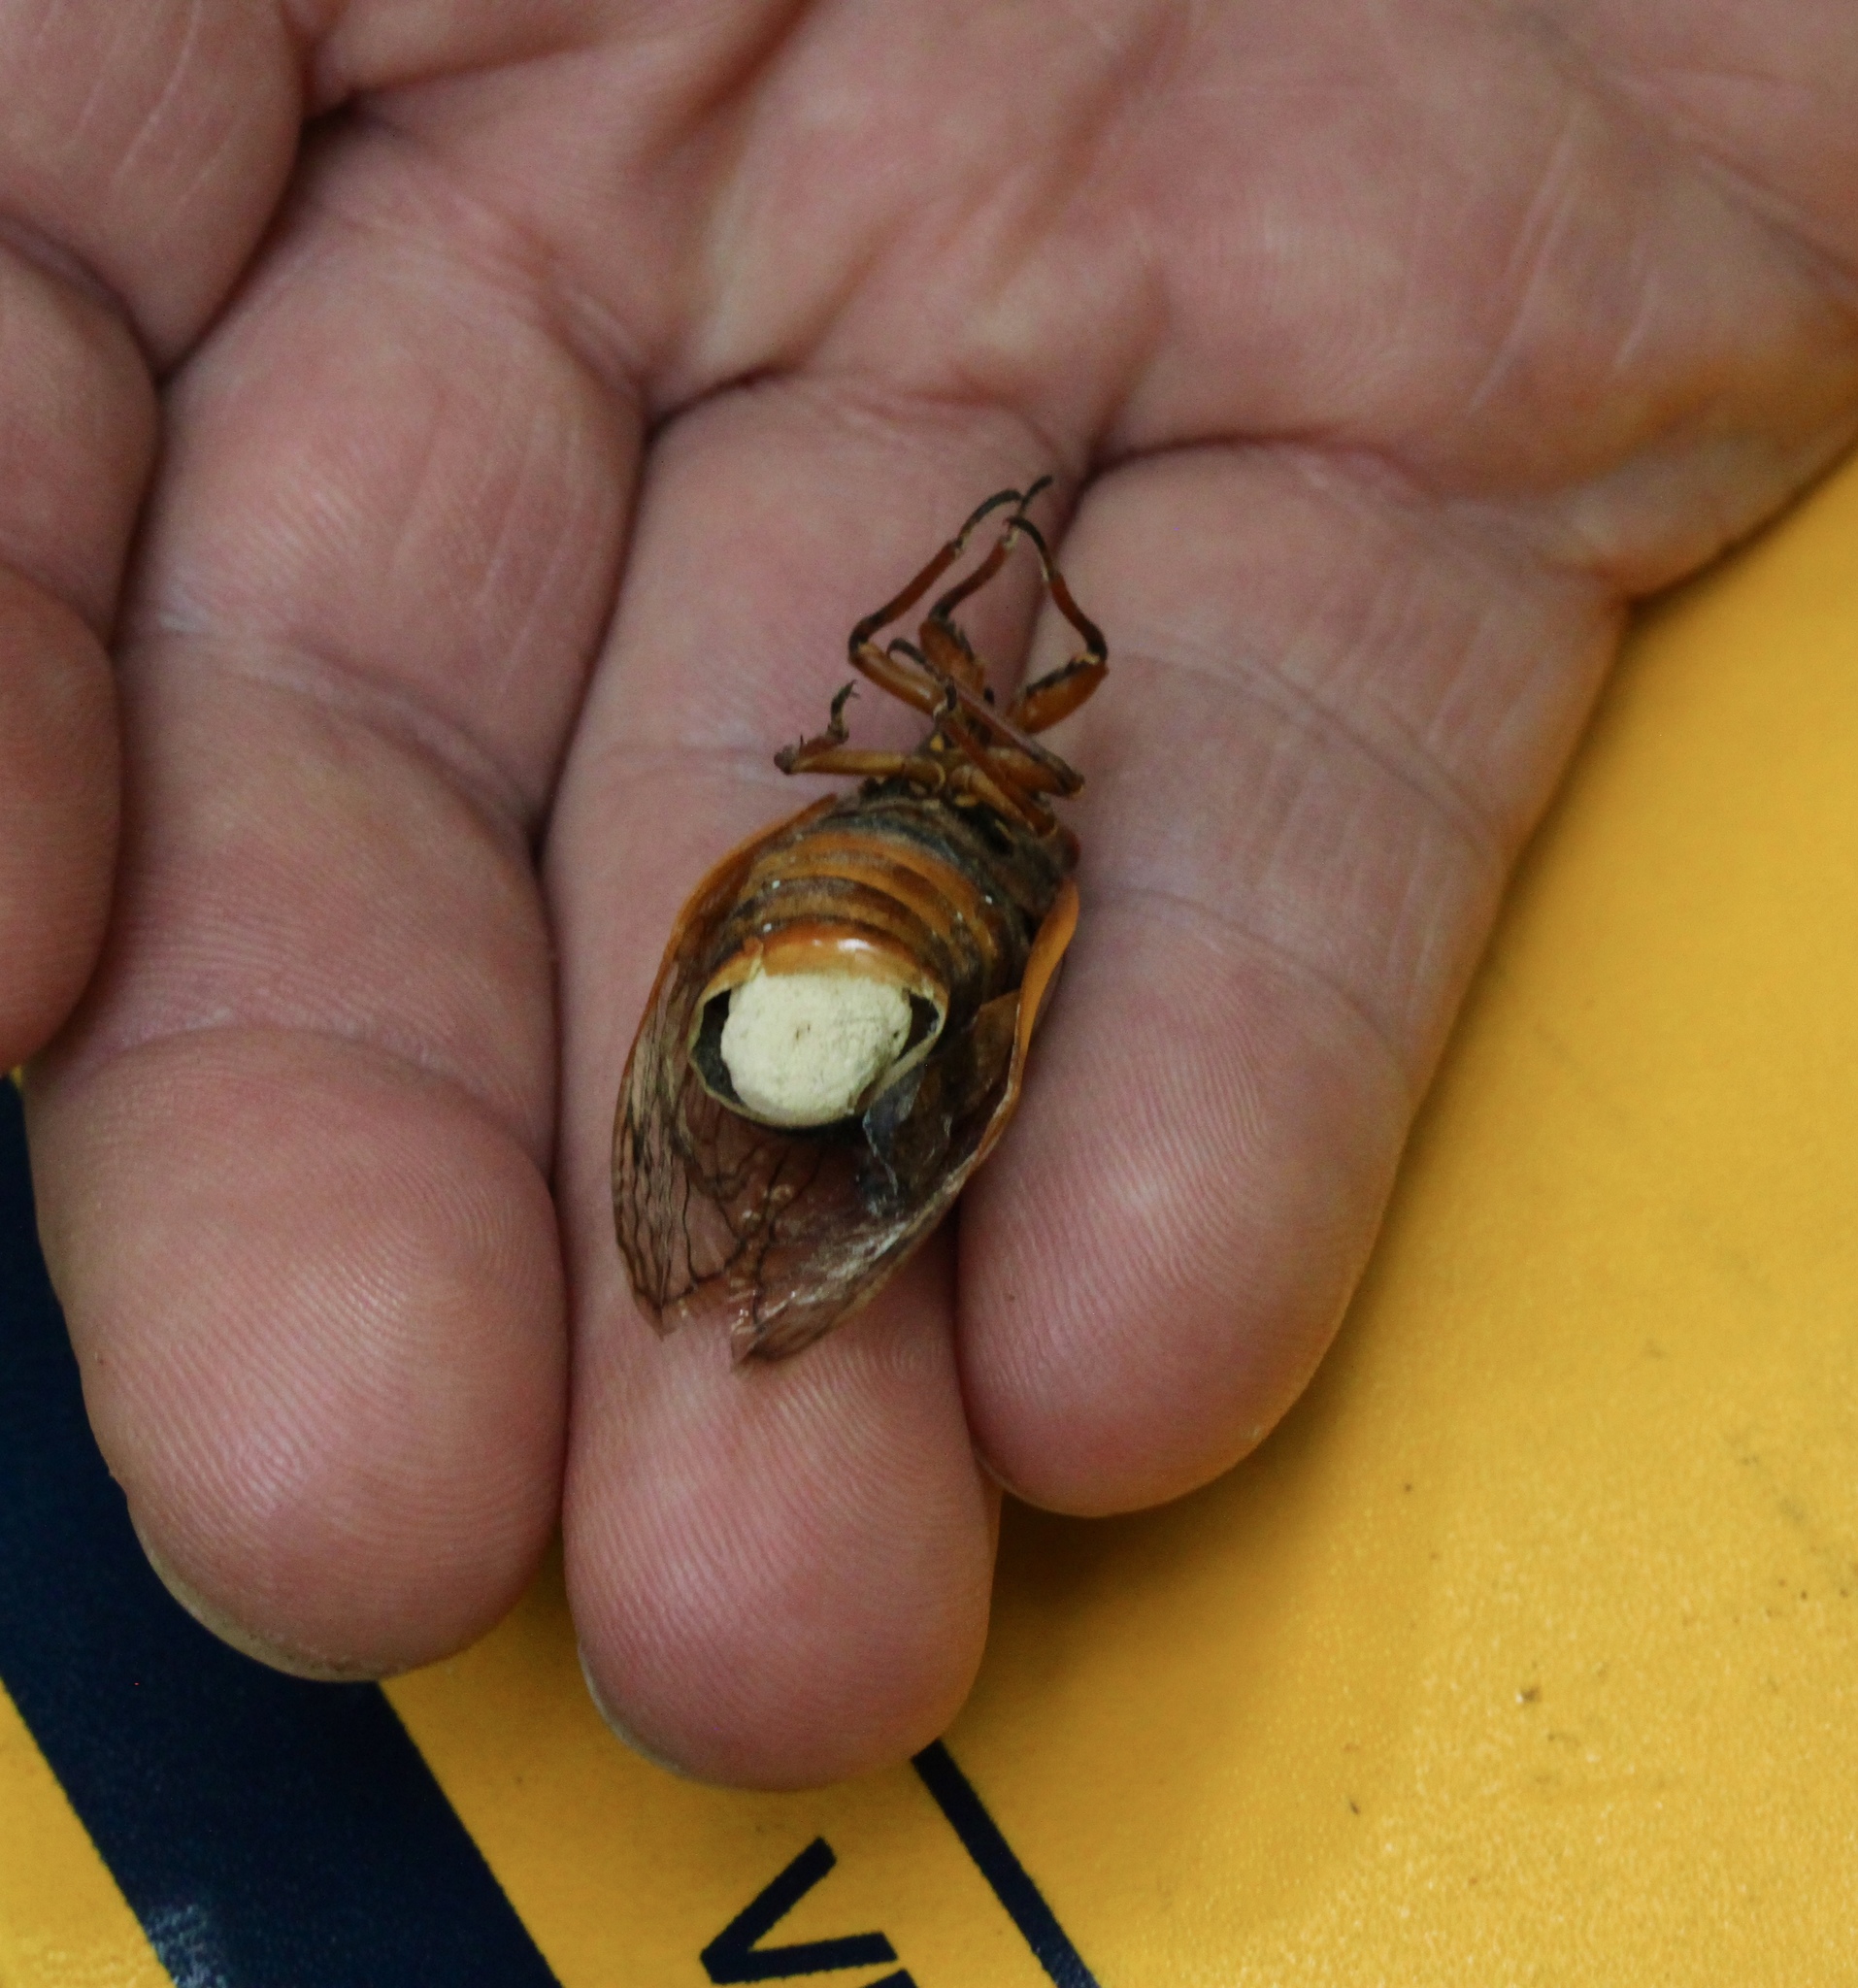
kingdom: Fungi
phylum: Entomophthoromycota
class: Entomophthoromycetes
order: Entomophthorales
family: Entomophthoraceae
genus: Massospora
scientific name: Massospora cicadina
